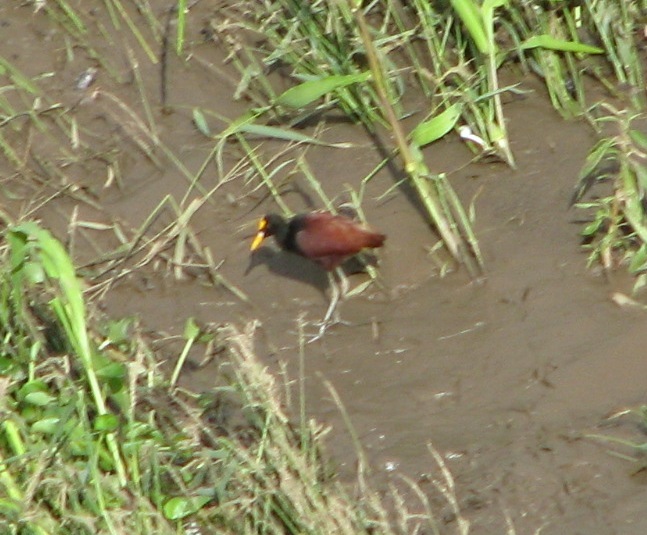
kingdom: Animalia
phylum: Chordata
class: Aves
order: Charadriiformes
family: Jacanidae
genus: Jacana
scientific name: Jacana spinosa
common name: Northern jacana
